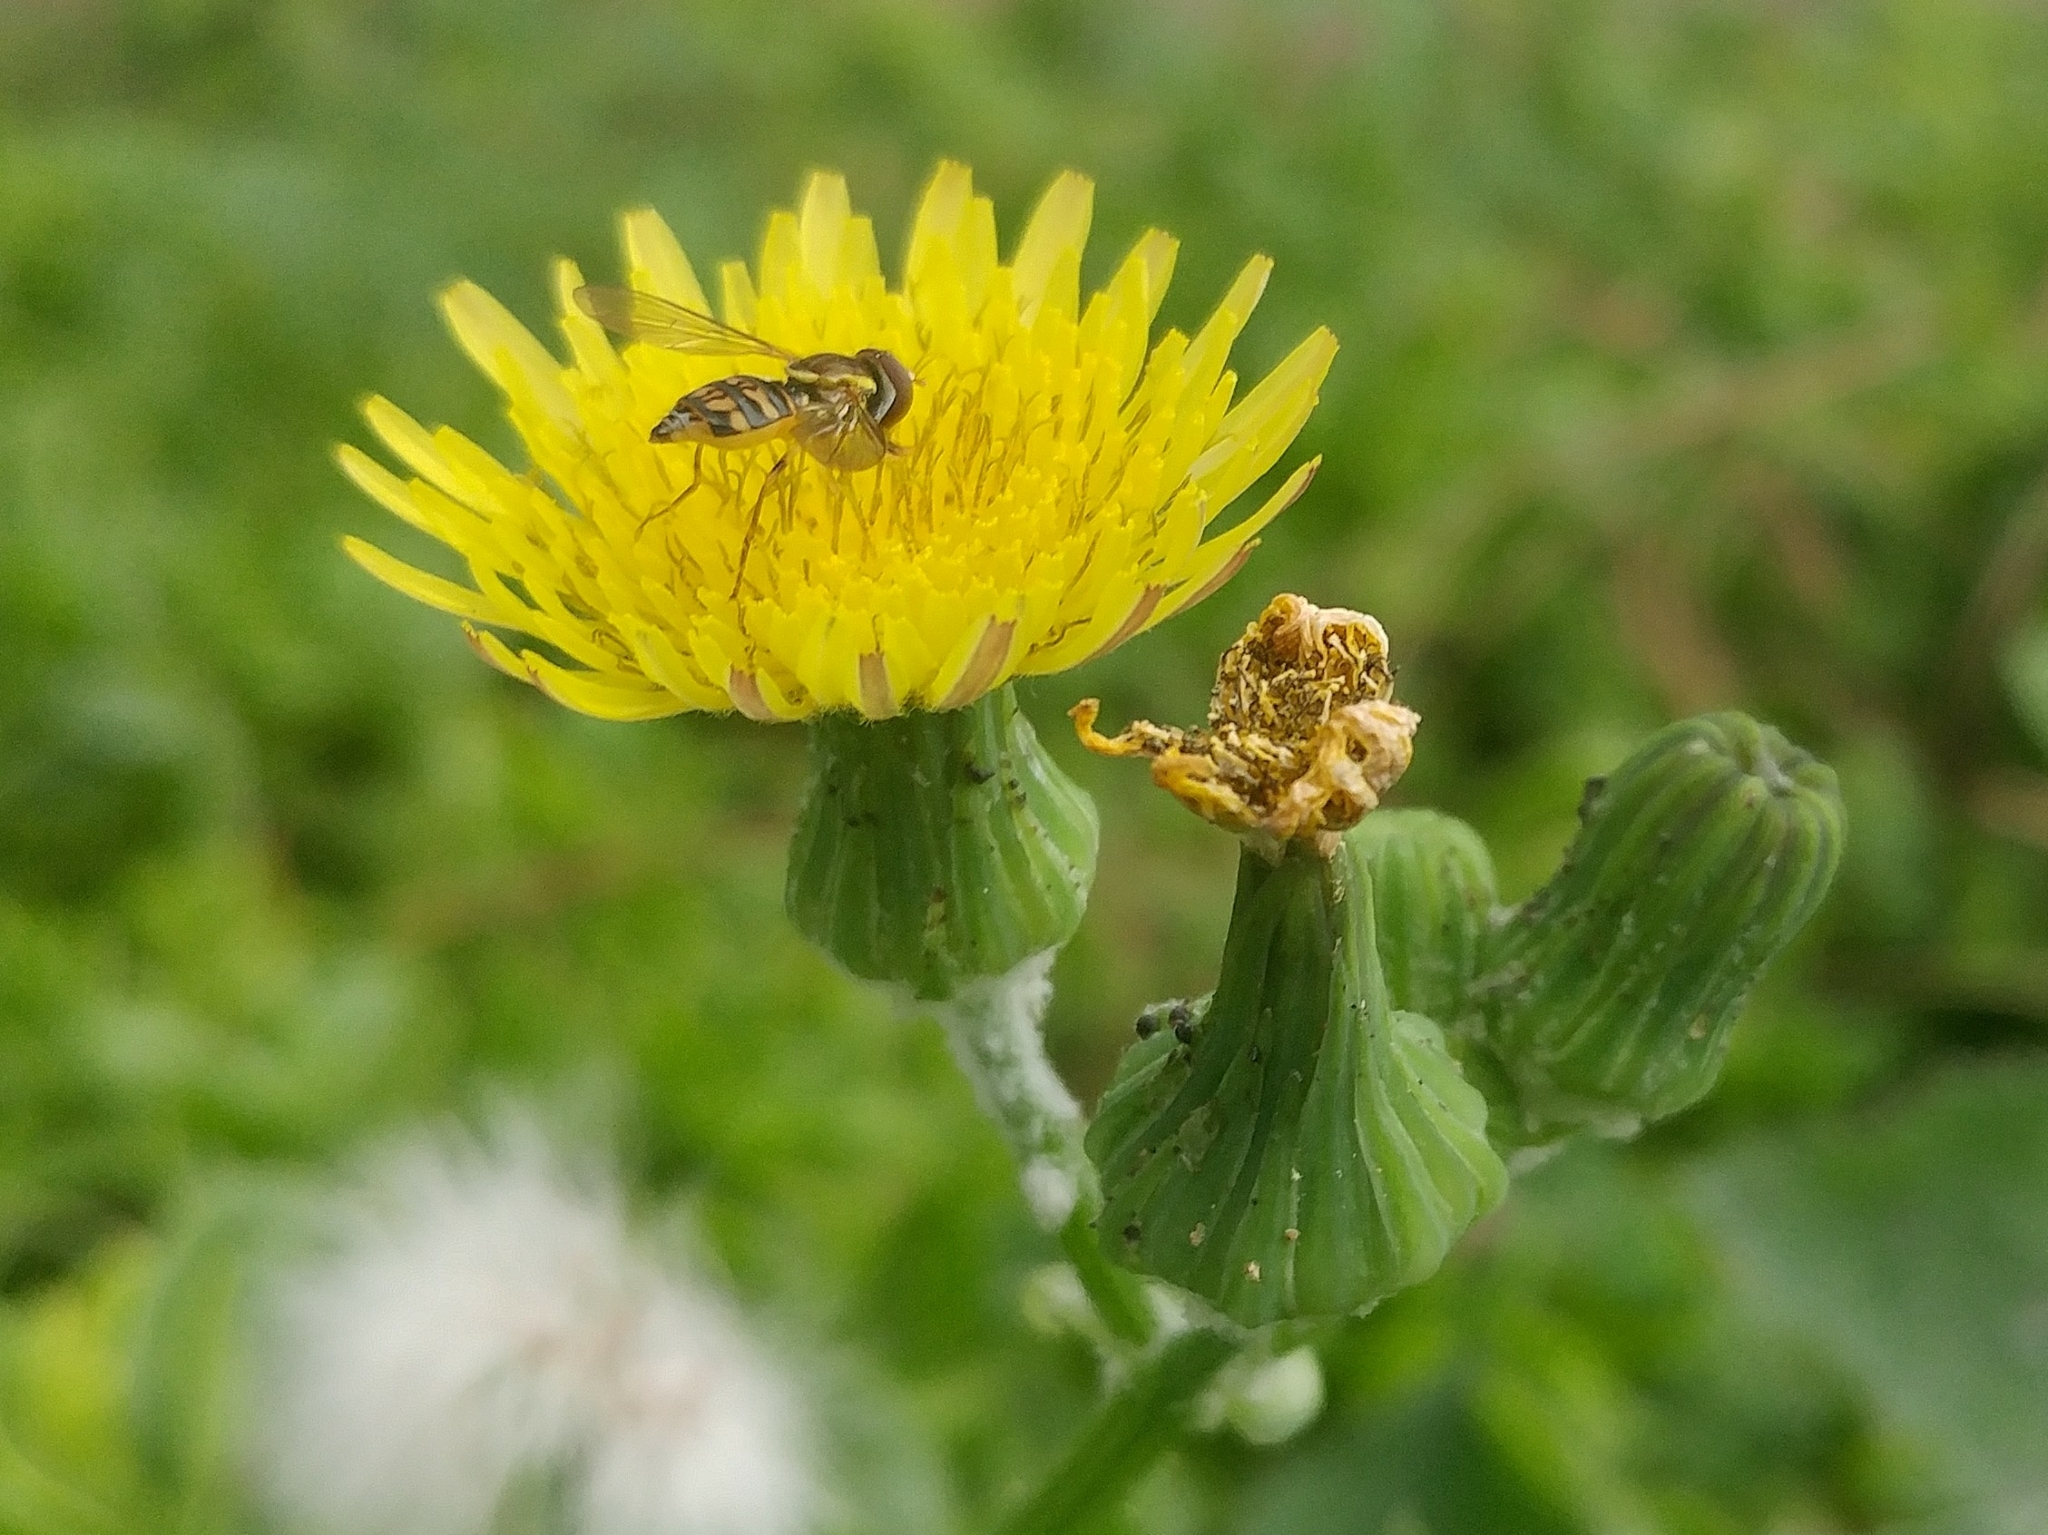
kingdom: Animalia
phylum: Arthropoda
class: Insecta
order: Diptera
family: Syrphidae
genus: Toxomerus
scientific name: Toxomerus occidentalis
